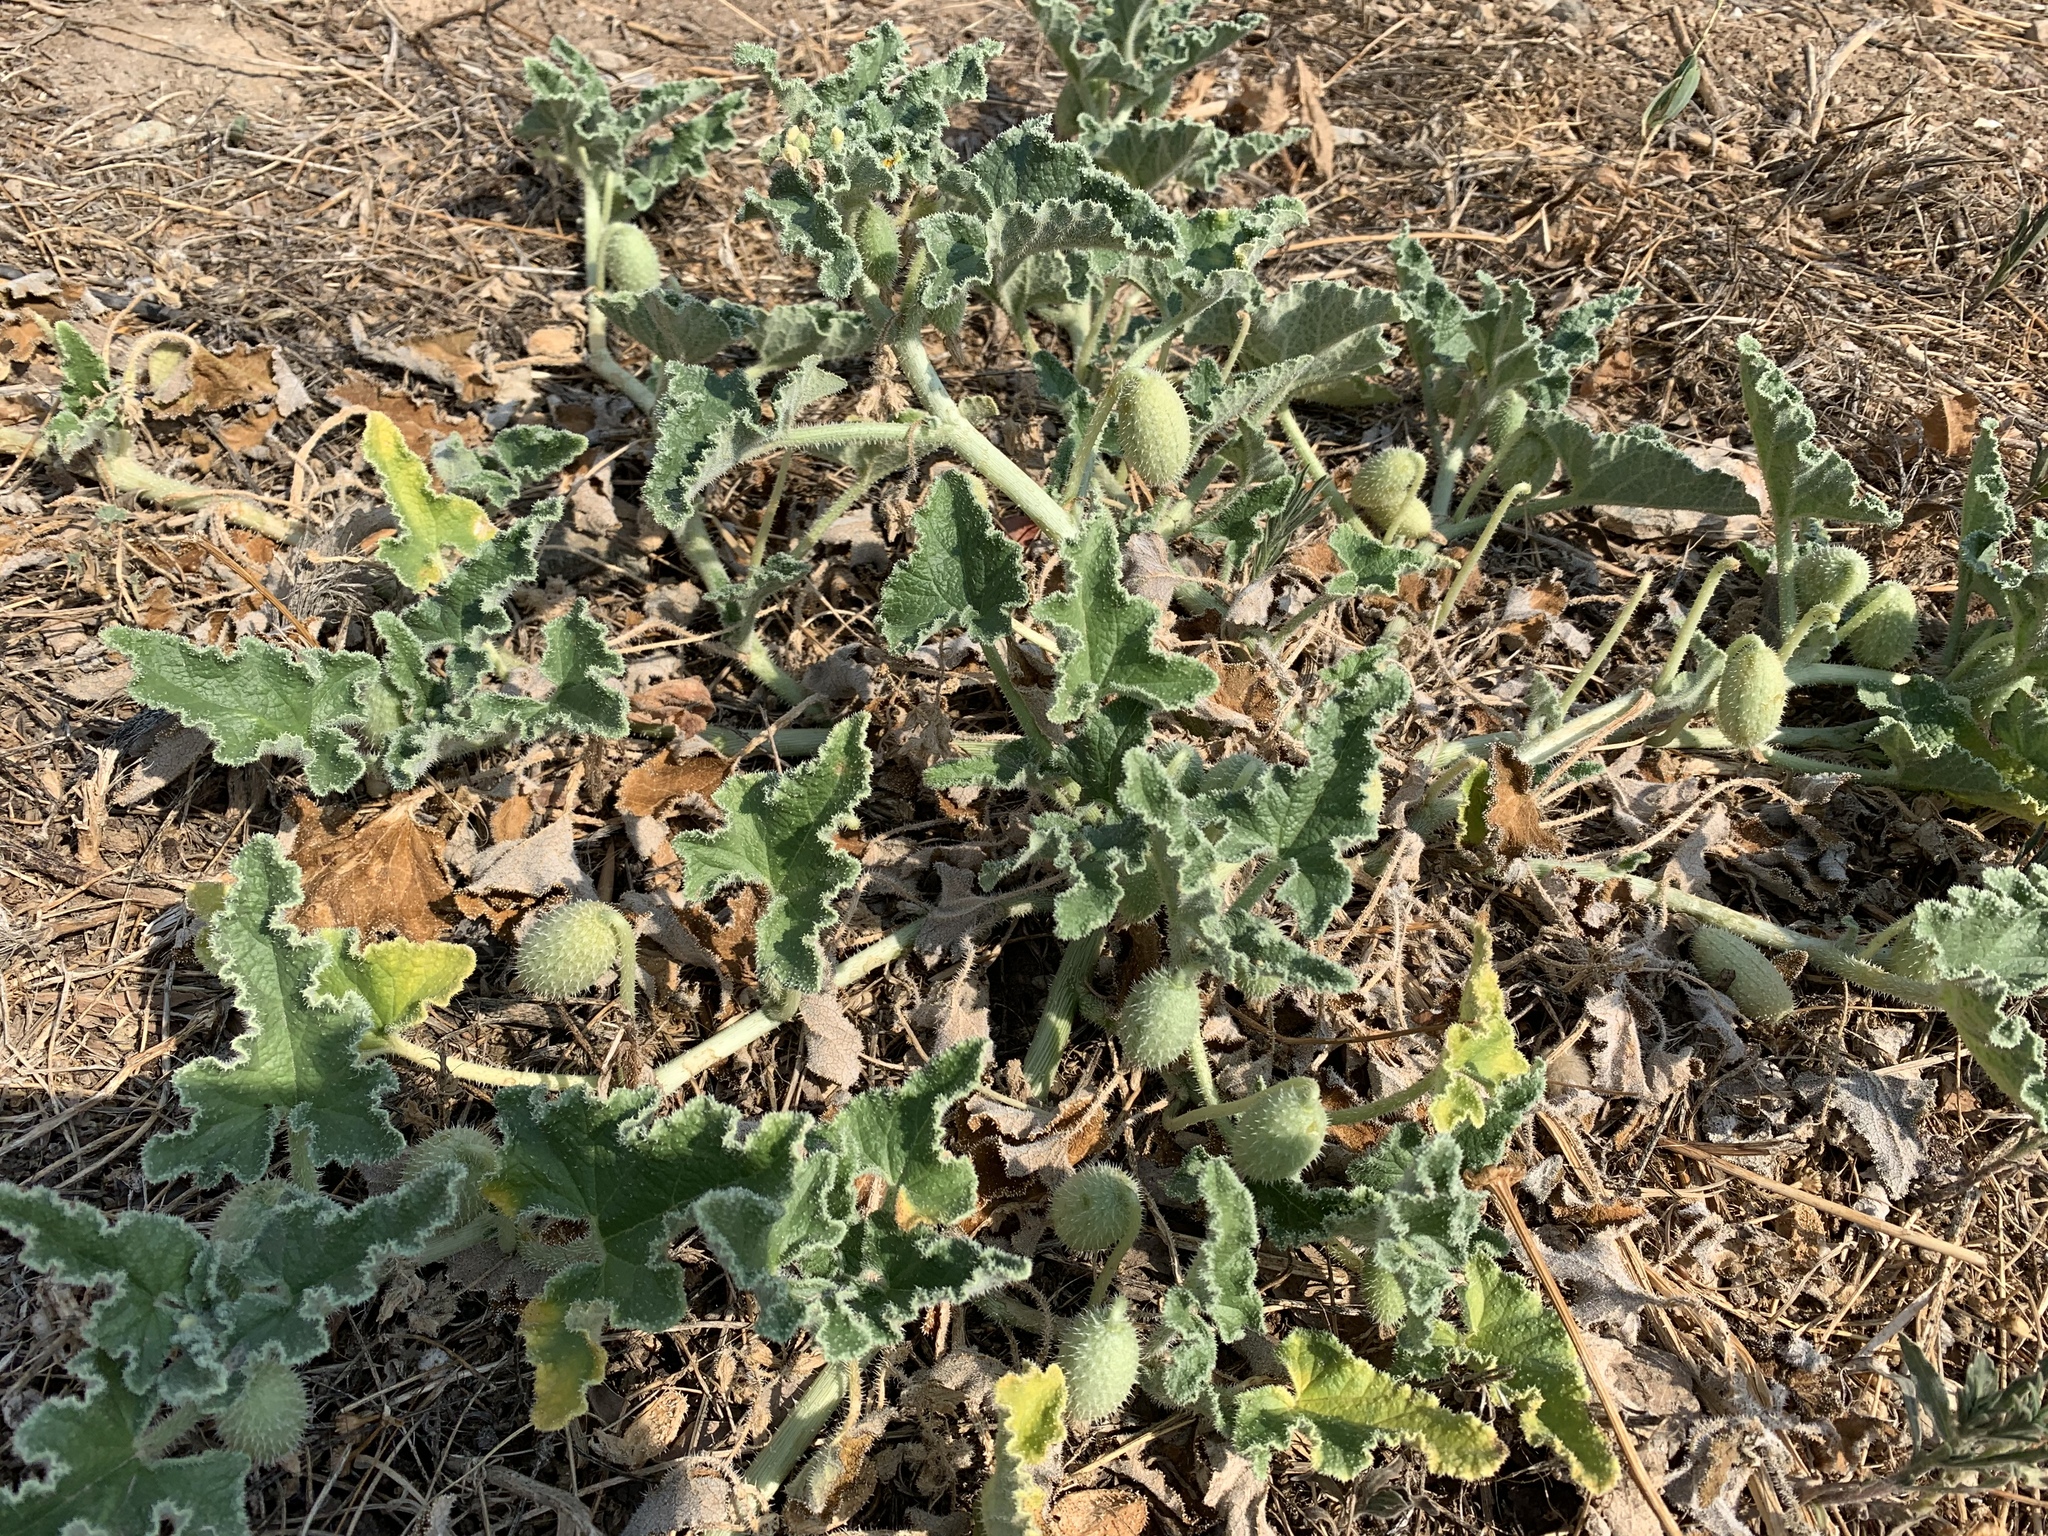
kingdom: Plantae
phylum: Tracheophyta
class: Magnoliopsida
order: Cucurbitales
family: Cucurbitaceae
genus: Ecballium
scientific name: Ecballium elaterium
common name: Squirting cucumber
